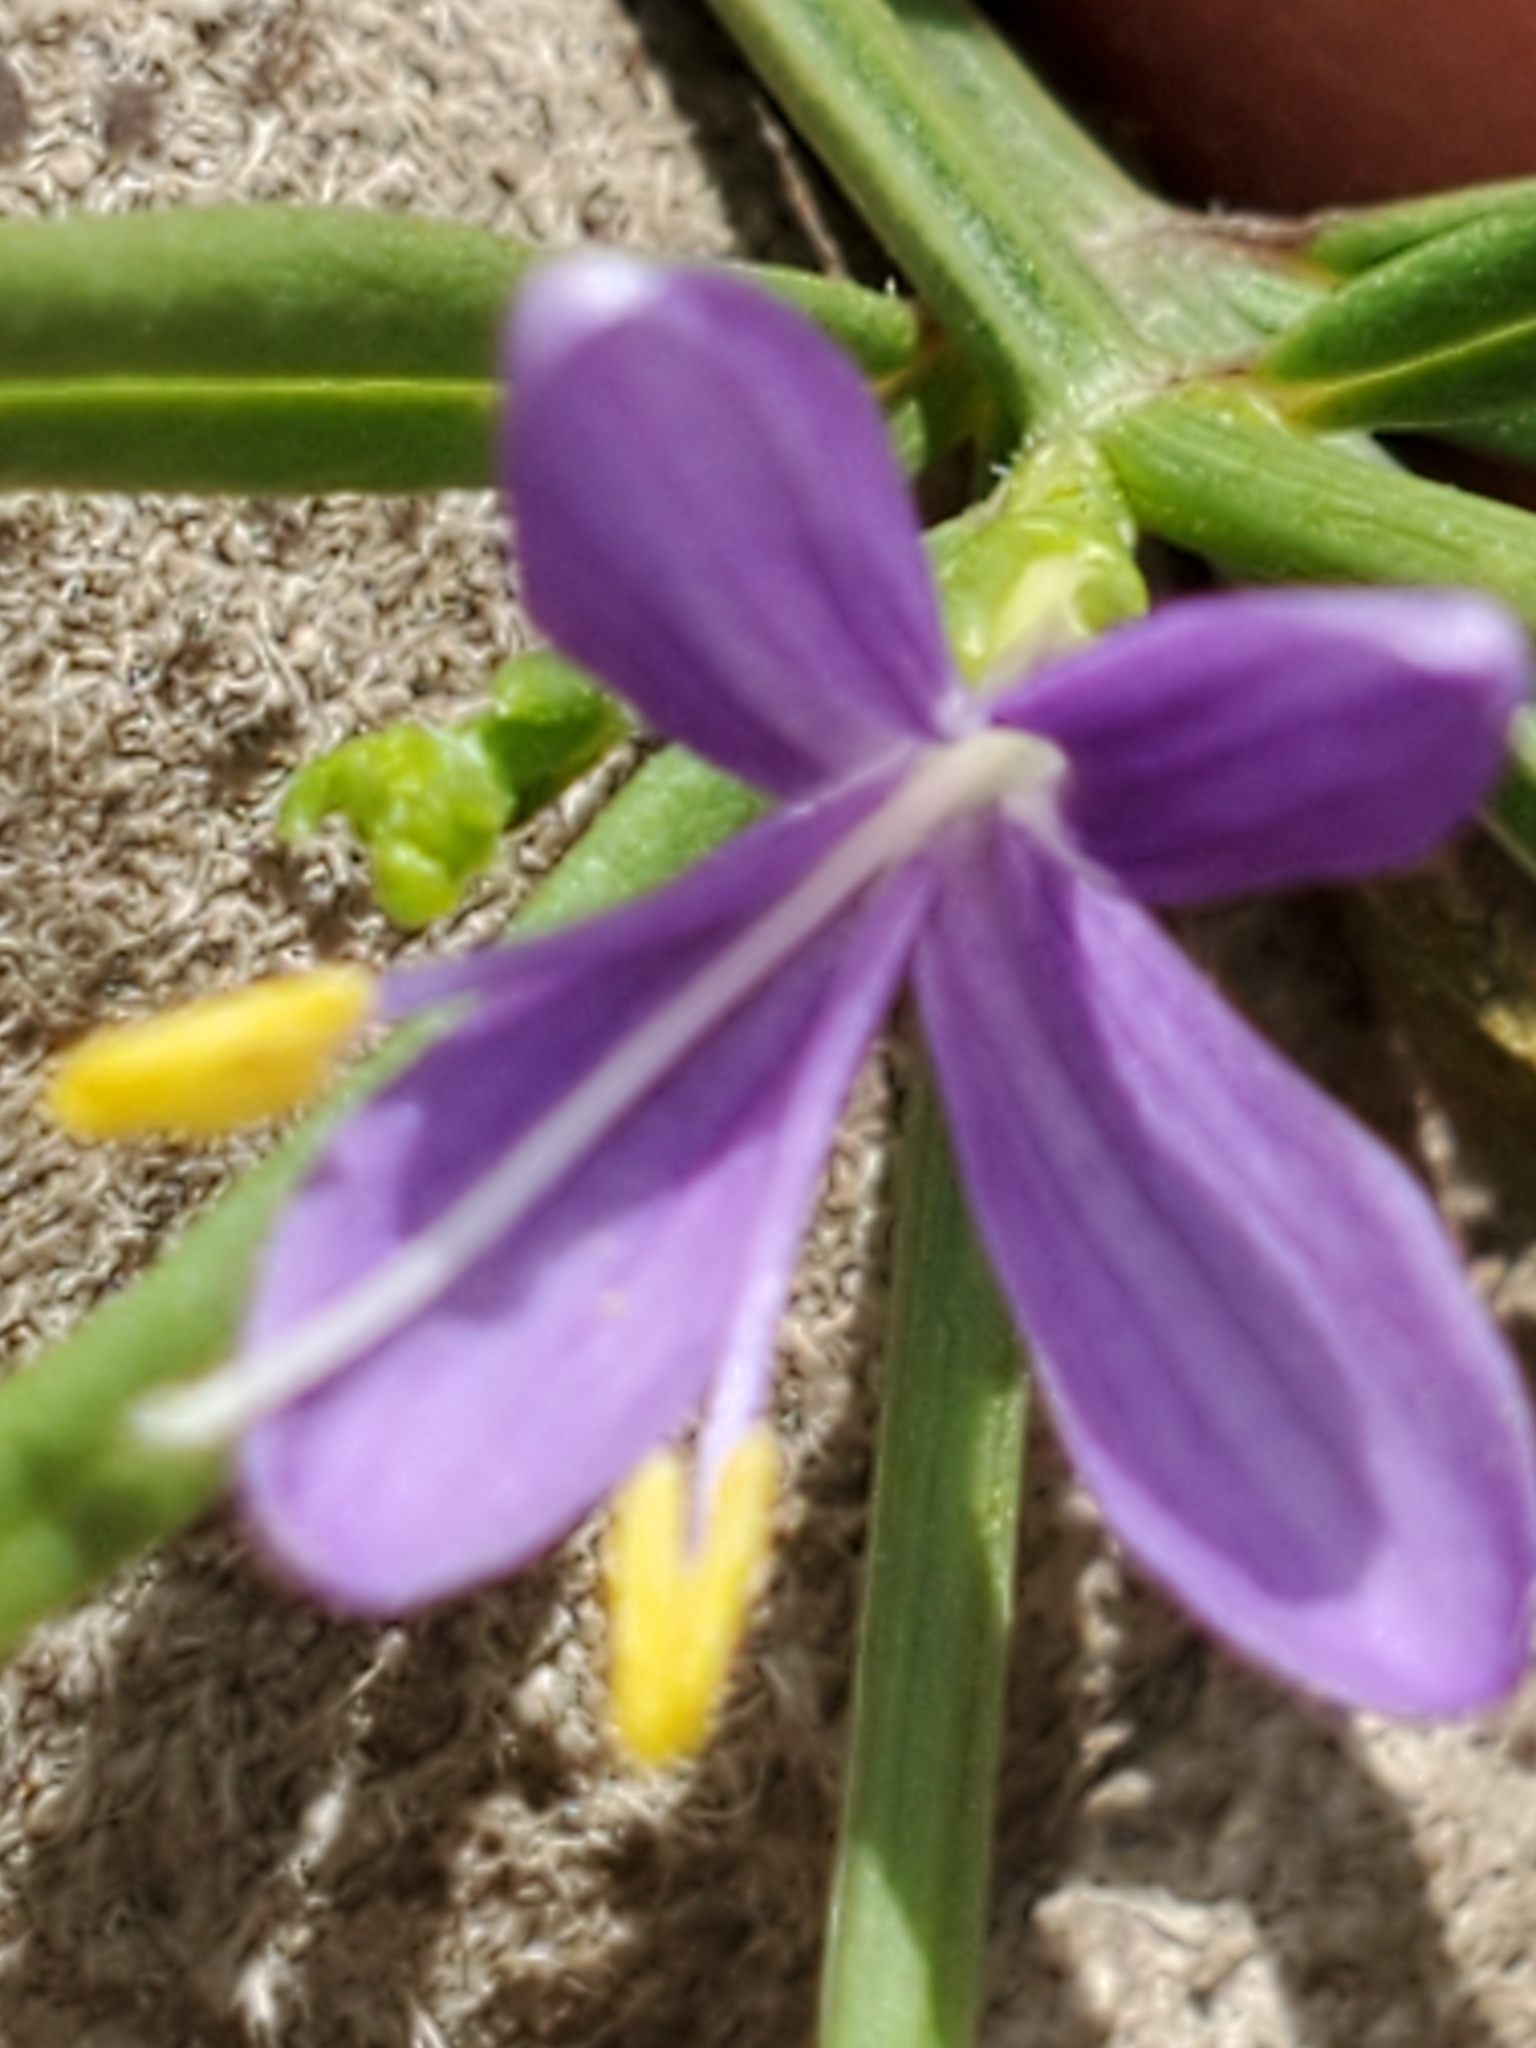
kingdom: Plantae
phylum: Tracheophyta
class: Magnoliopsida
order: Lamiales
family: Acanthaceae
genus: Carlowrightia
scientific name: Carlowrightia linearifolia
